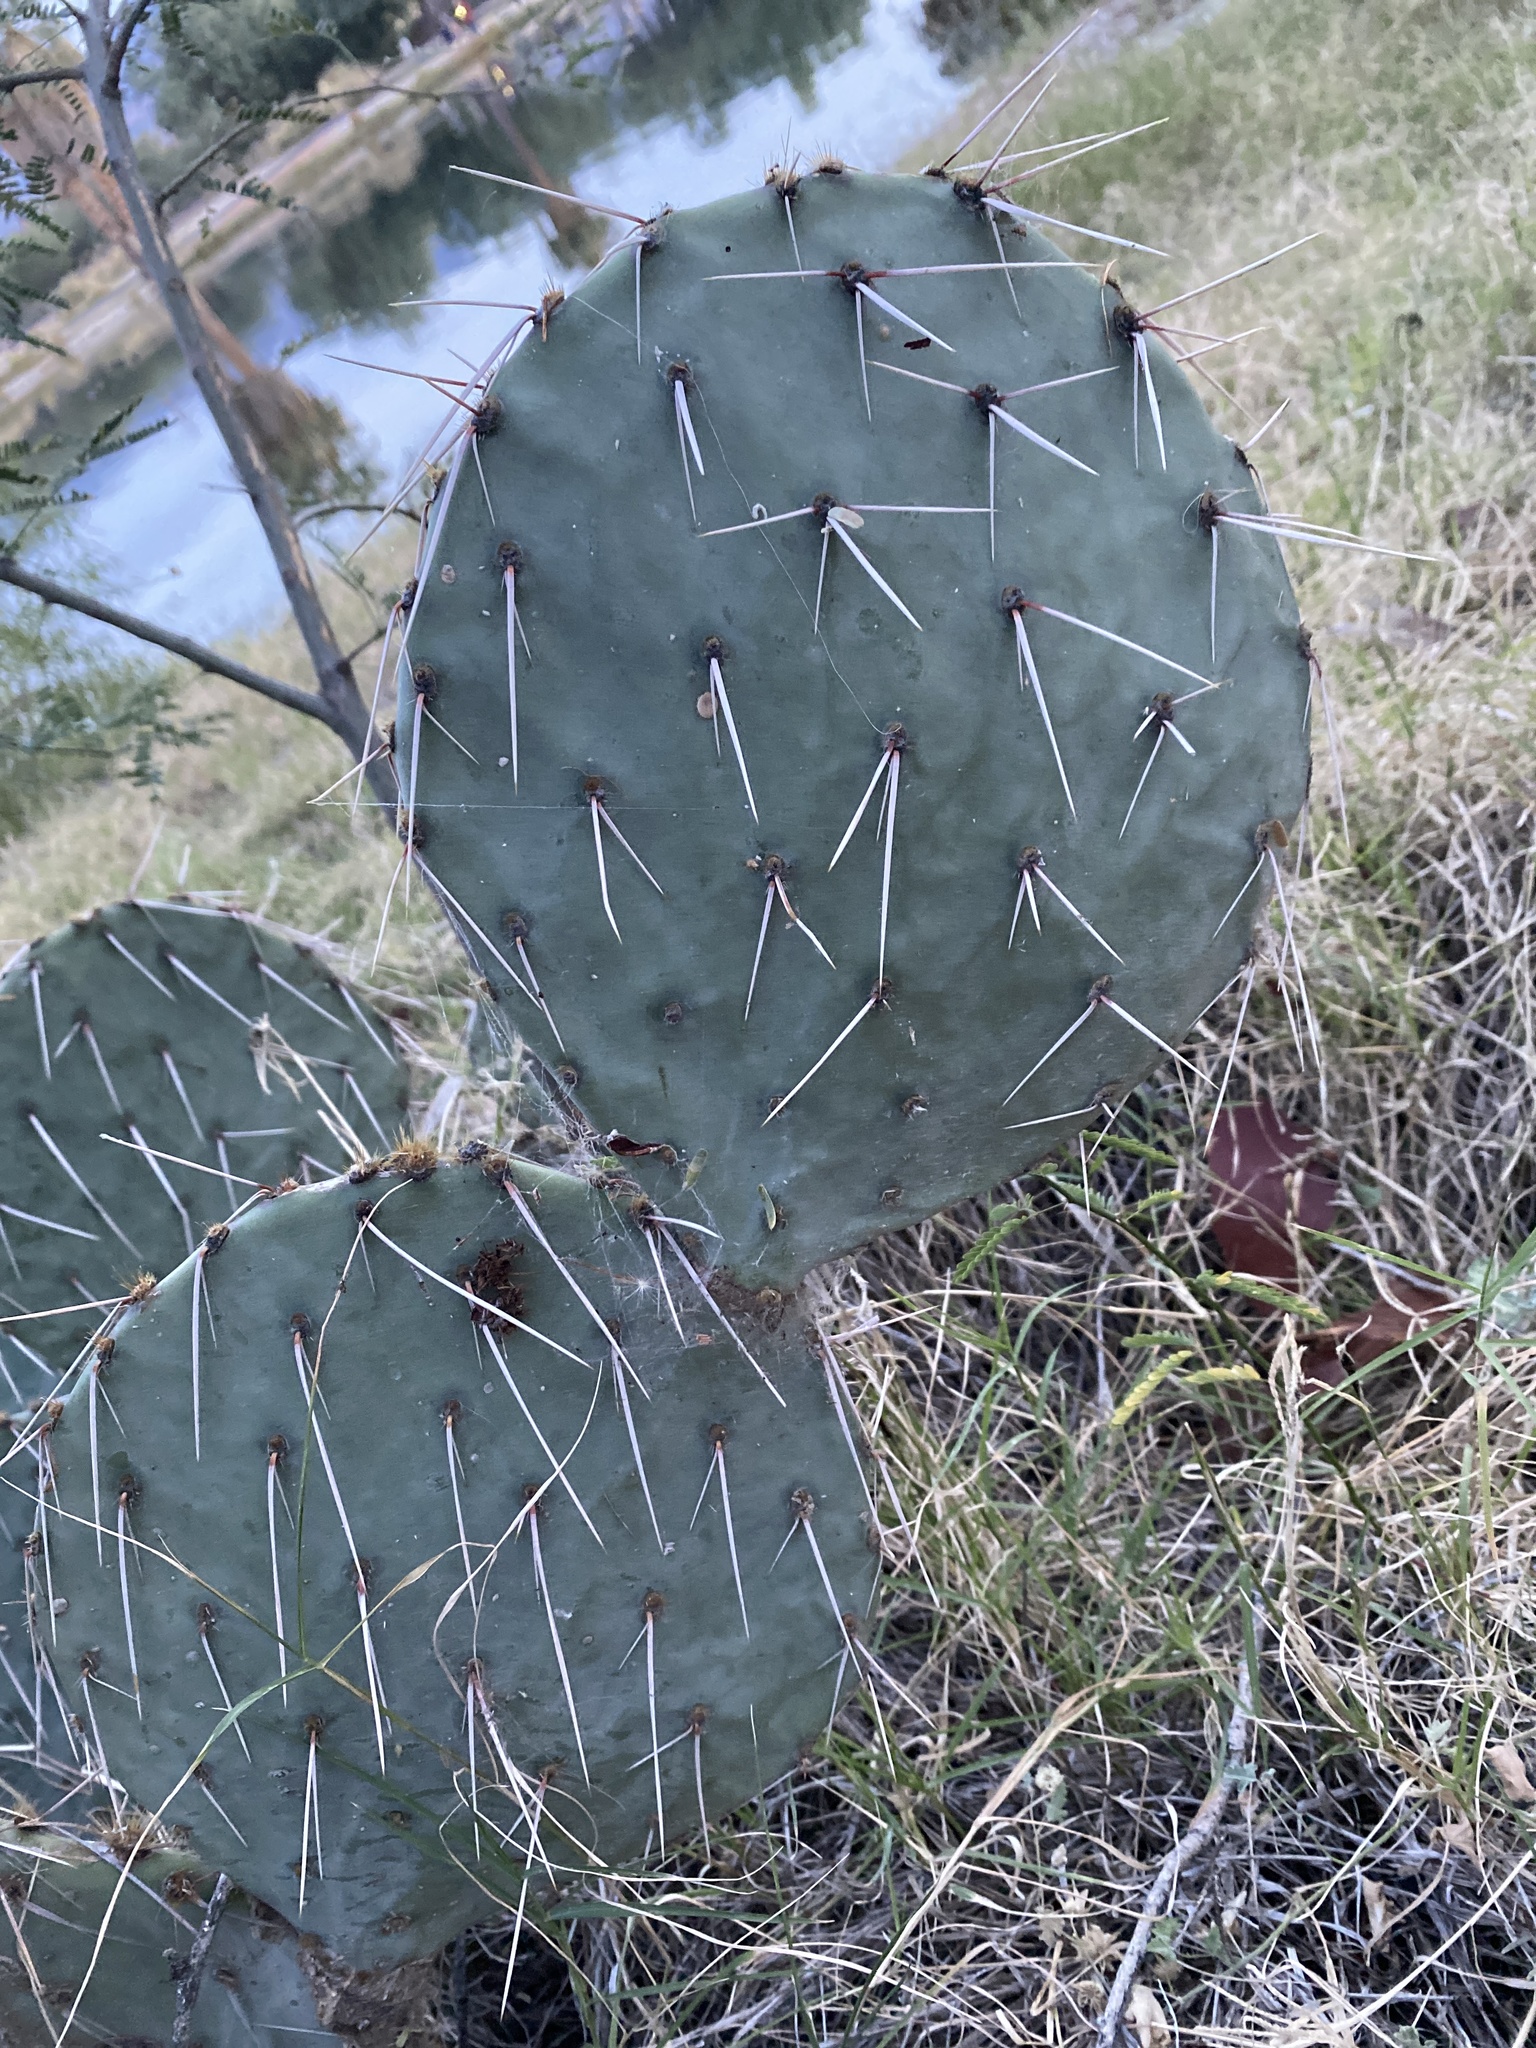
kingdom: Plantae
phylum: Tracheophyta
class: Magnoliopsida
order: Caryophyllales
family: Cactaceae
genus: Opuntia
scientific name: Opuntia engelmannii
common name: Cactus-apple
